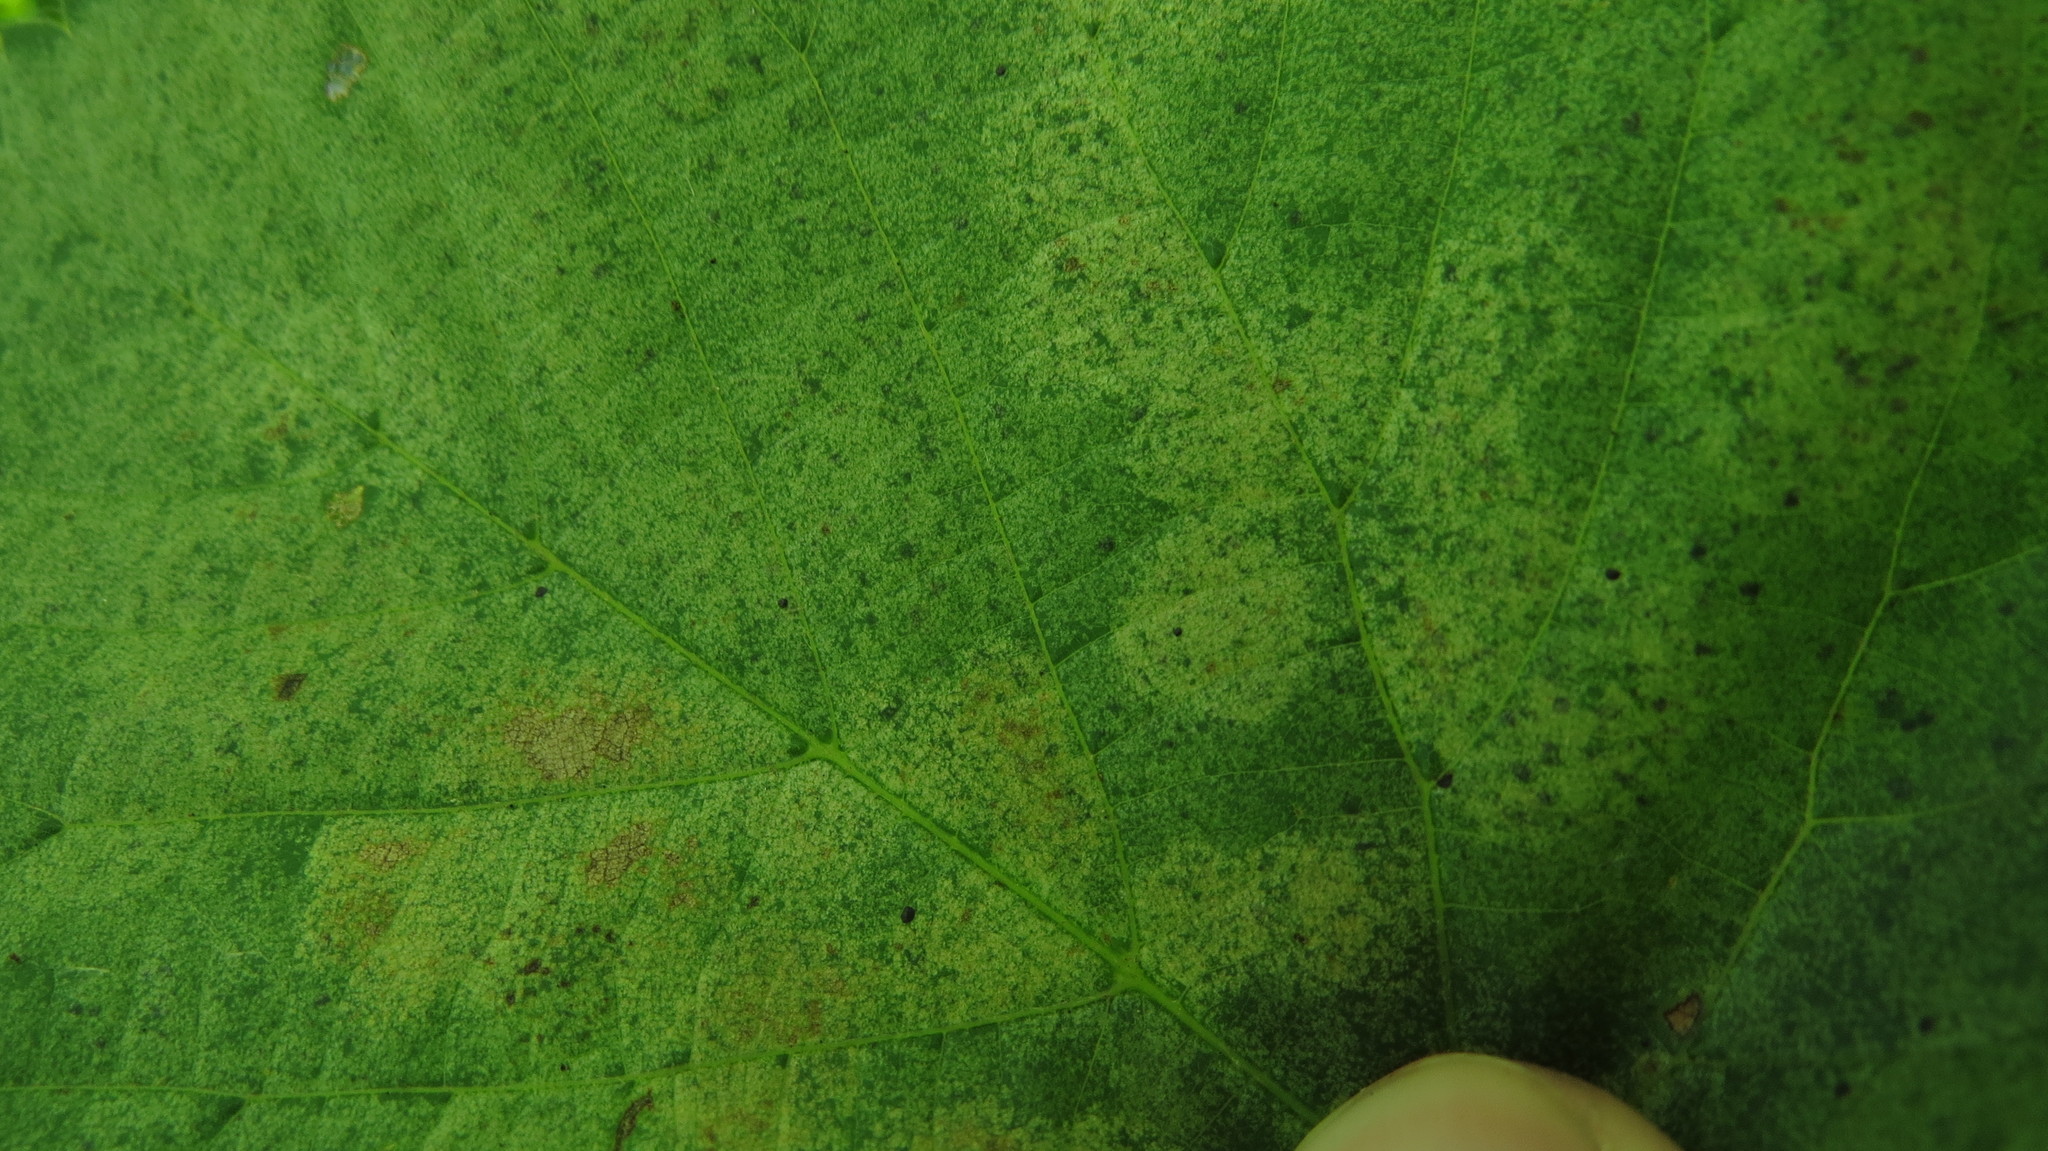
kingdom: Animalia
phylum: Arthropoda
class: Insecta
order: Hemiptera
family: Tingidae
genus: Gargaphia
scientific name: Gargaphia tiliae
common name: Basswood lace bug
